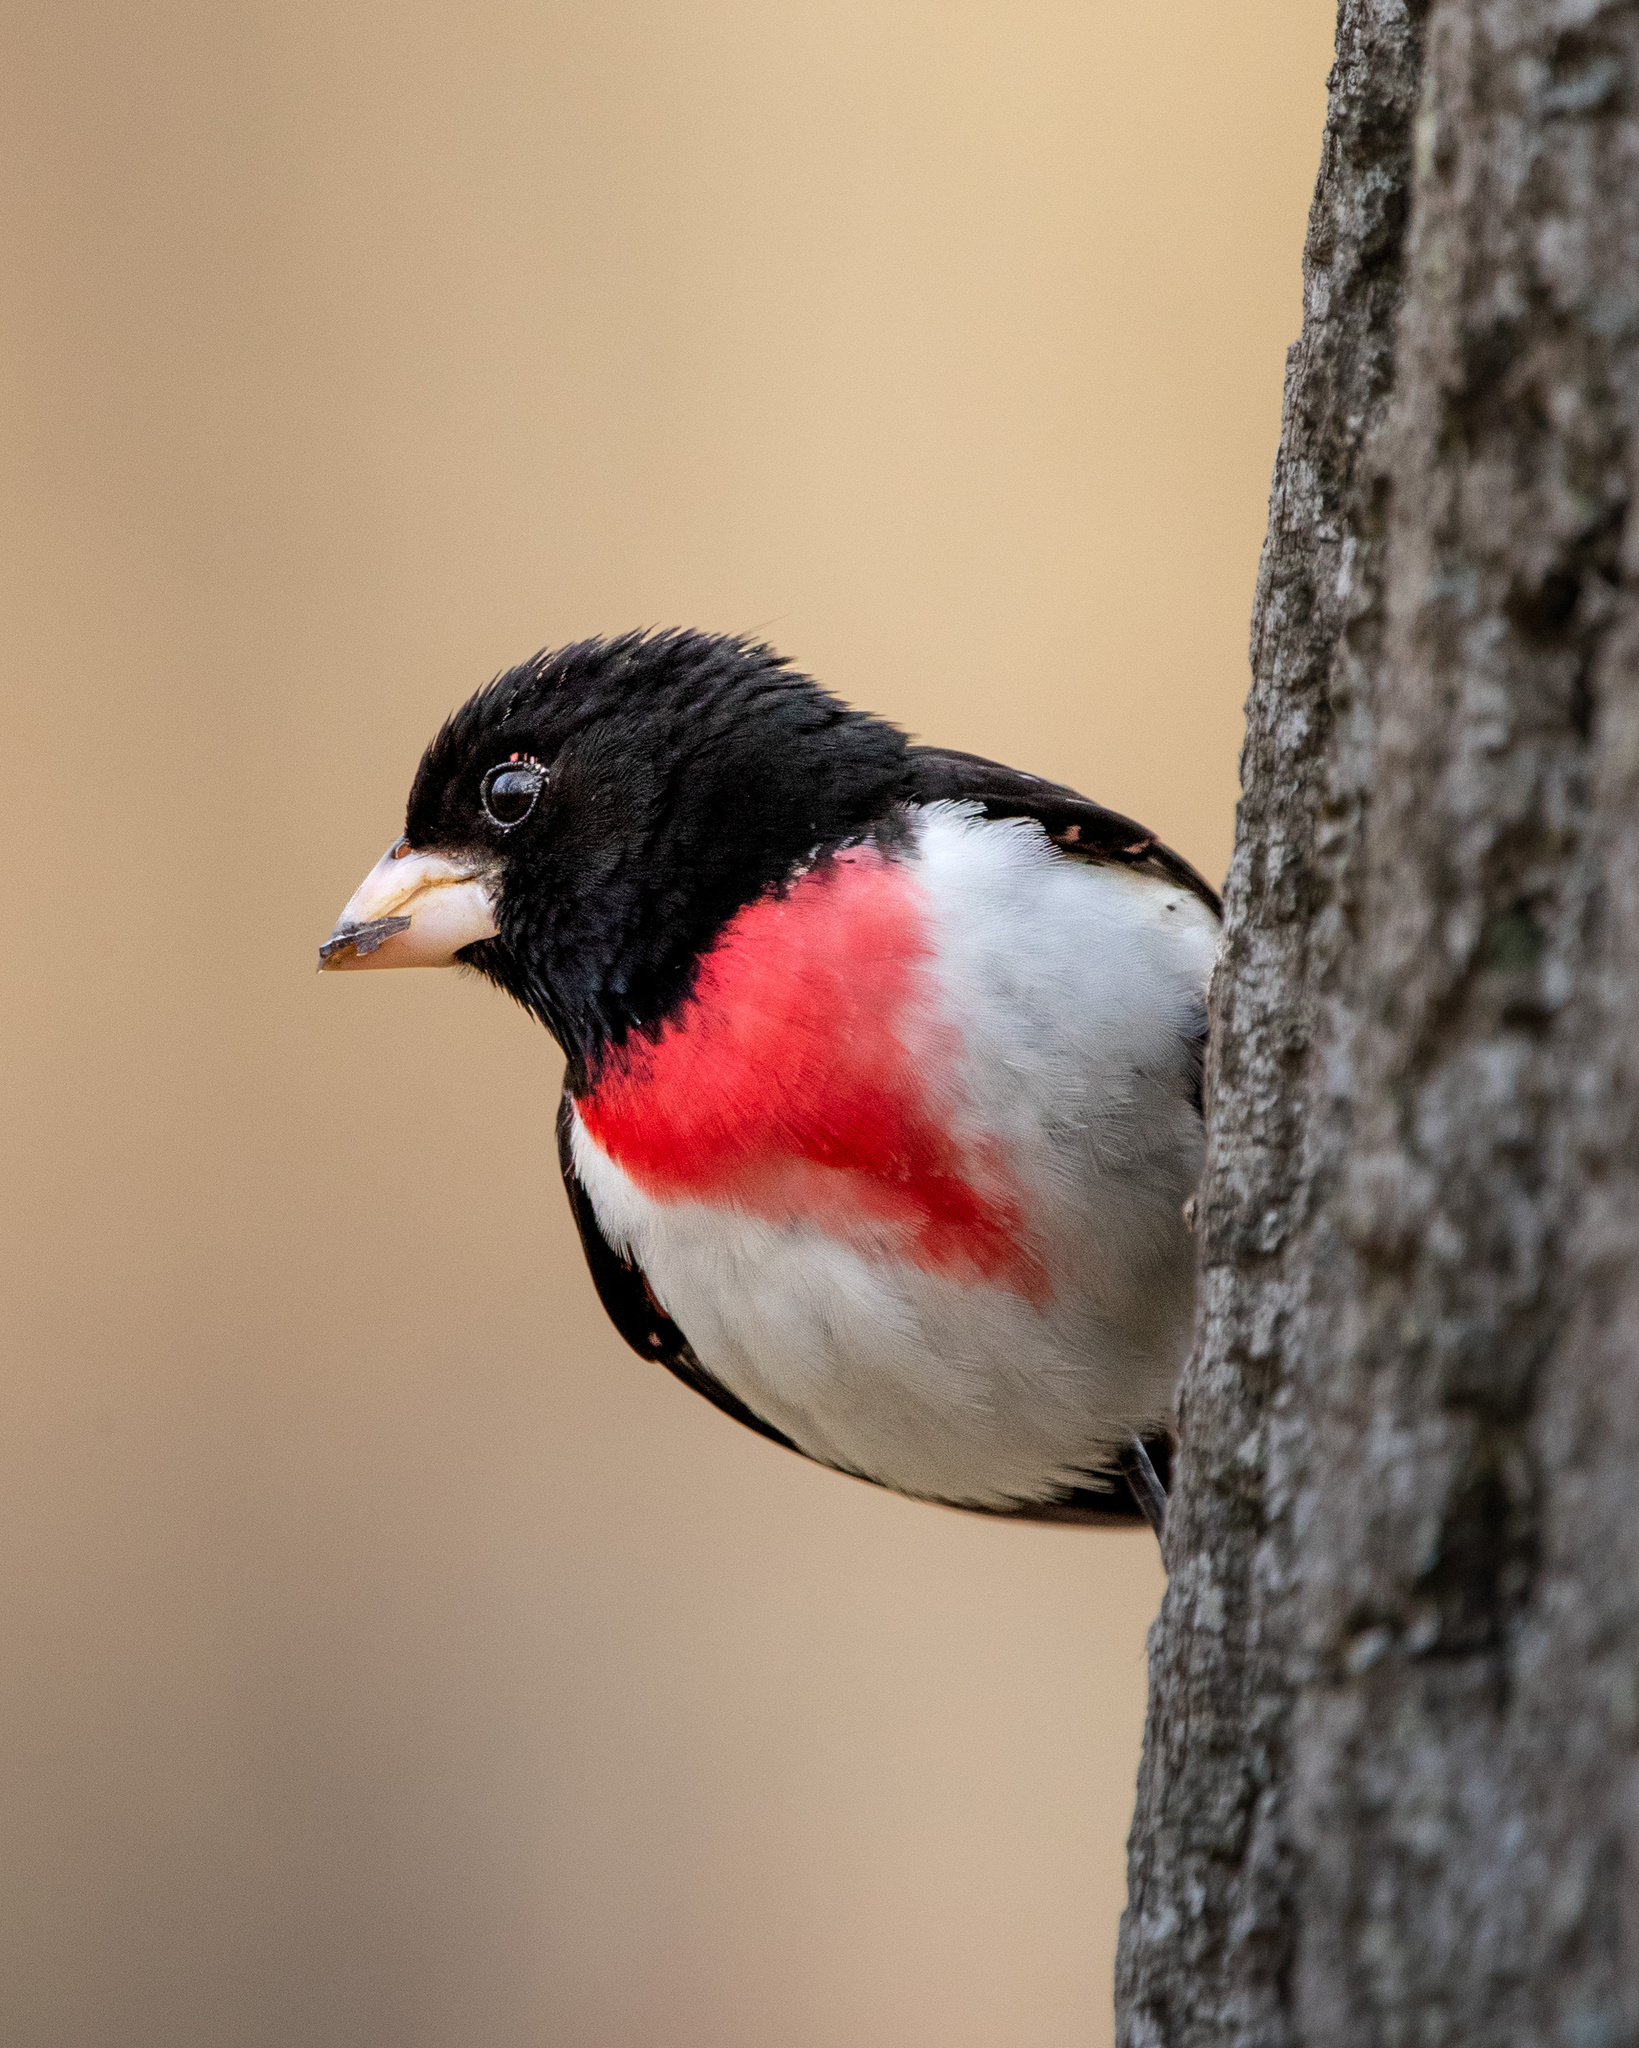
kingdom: Animalia
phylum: Chordata
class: Aves
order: Passeriformes
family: Cardinalidae
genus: Pheucticus
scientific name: Pheucticus ludovicianus
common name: Rose-breasted grosbeak
